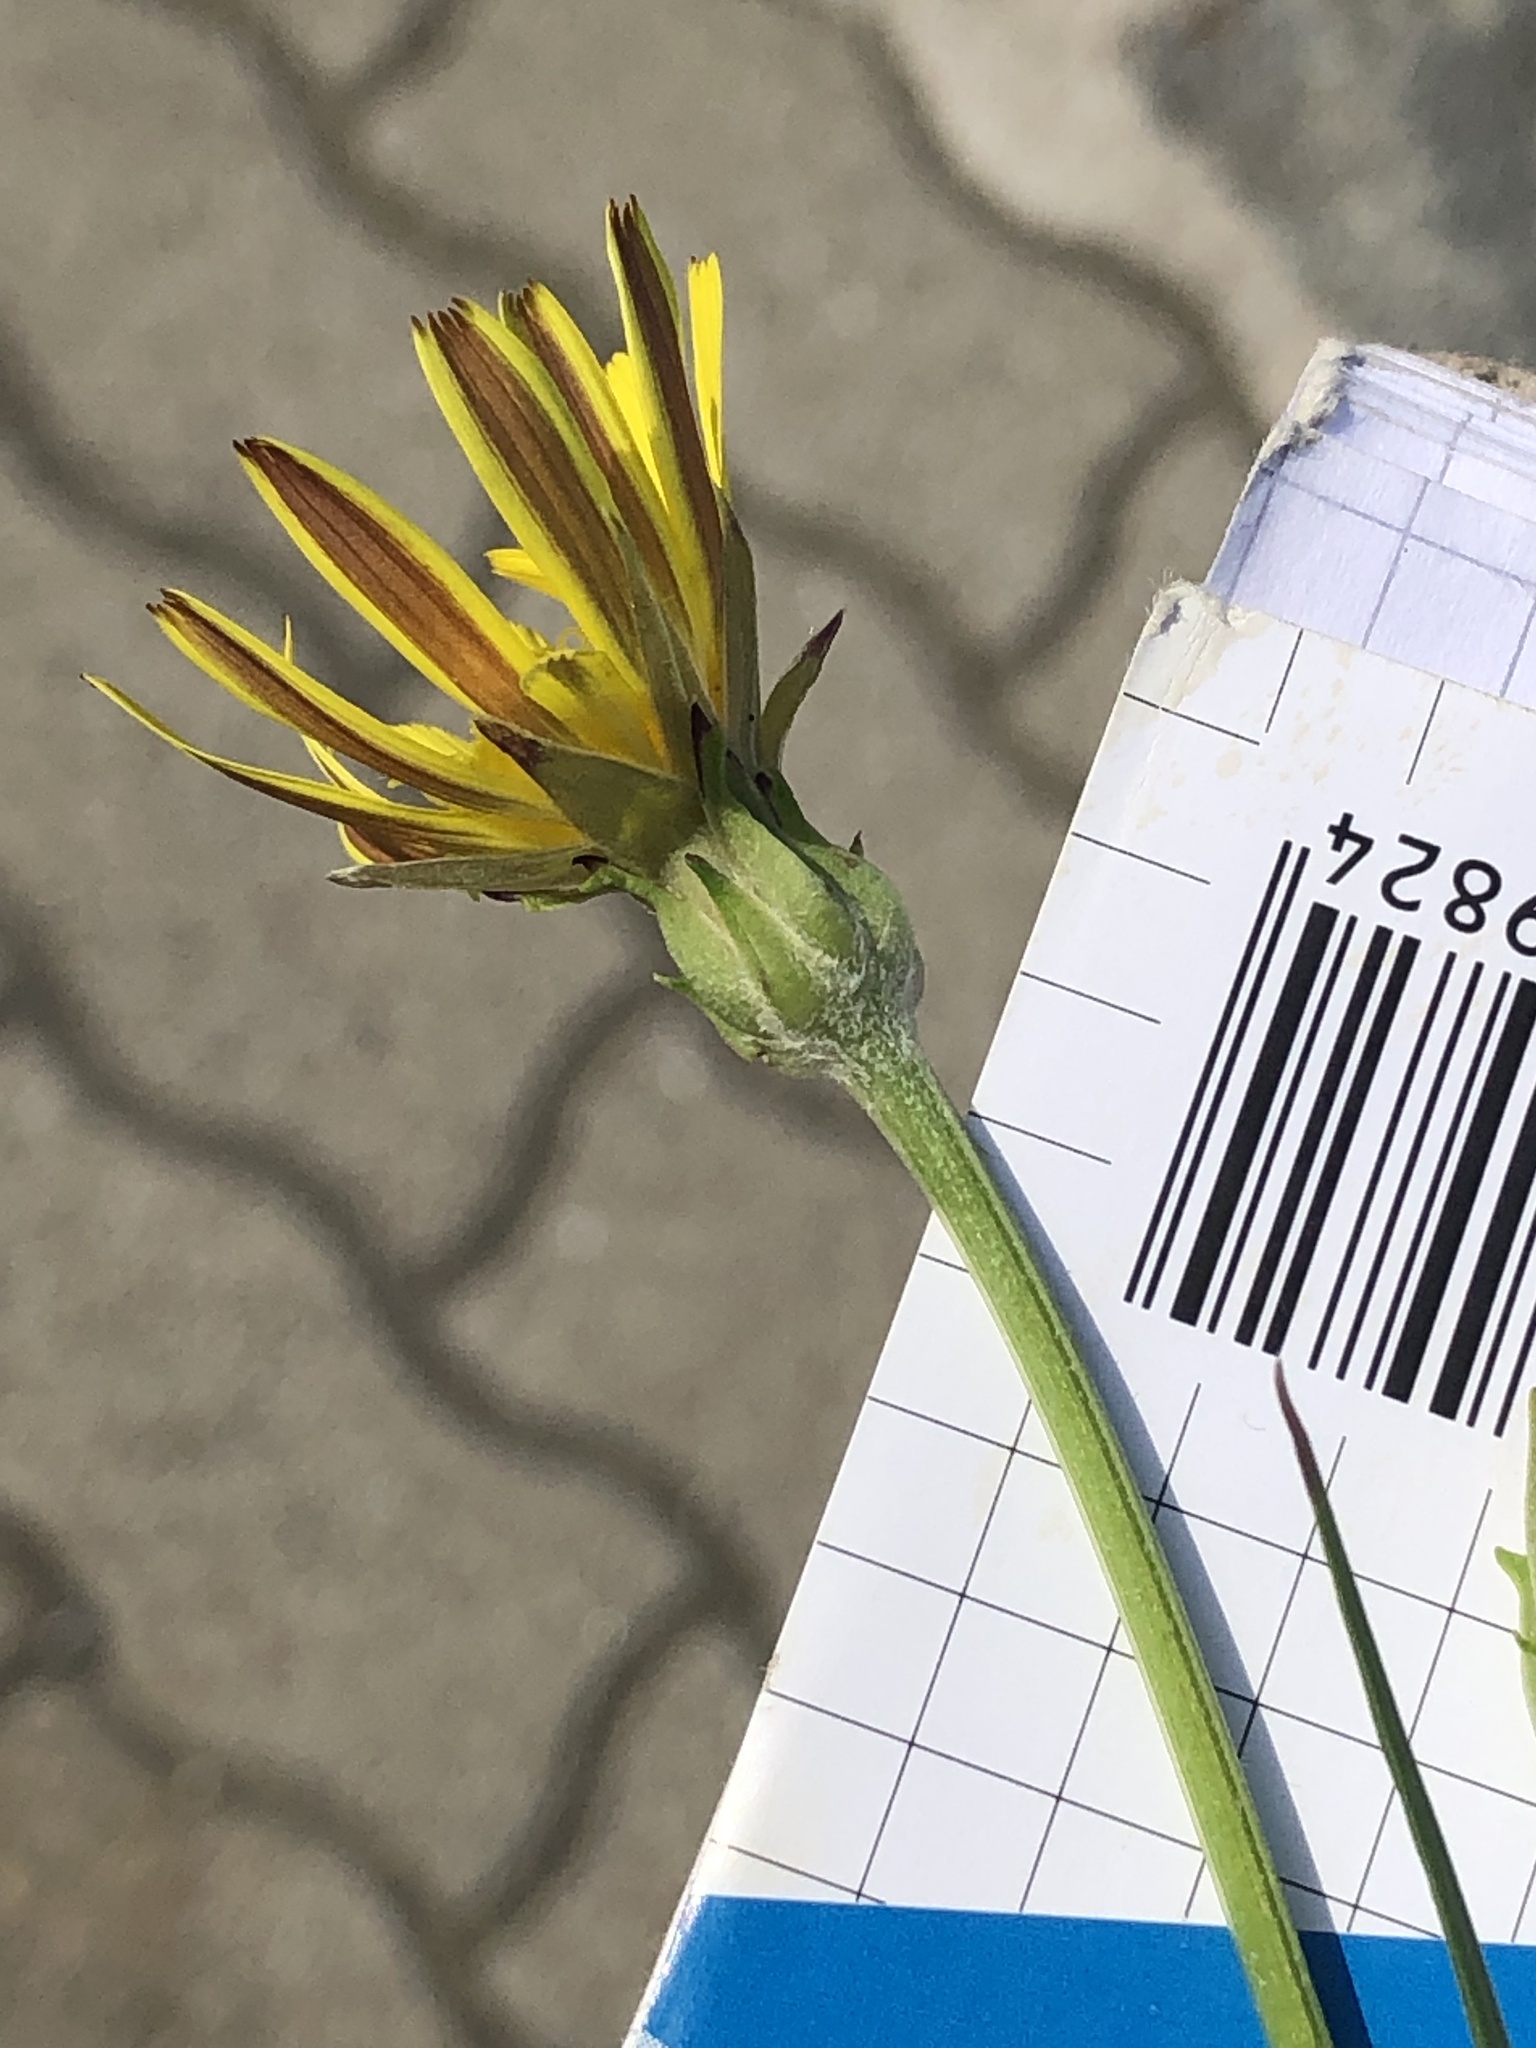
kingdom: Plantae
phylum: Tracheophyta
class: Magnoliopsida
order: Asterales
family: Asteraceae
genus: Scorzonera
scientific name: Scorzonera cana
